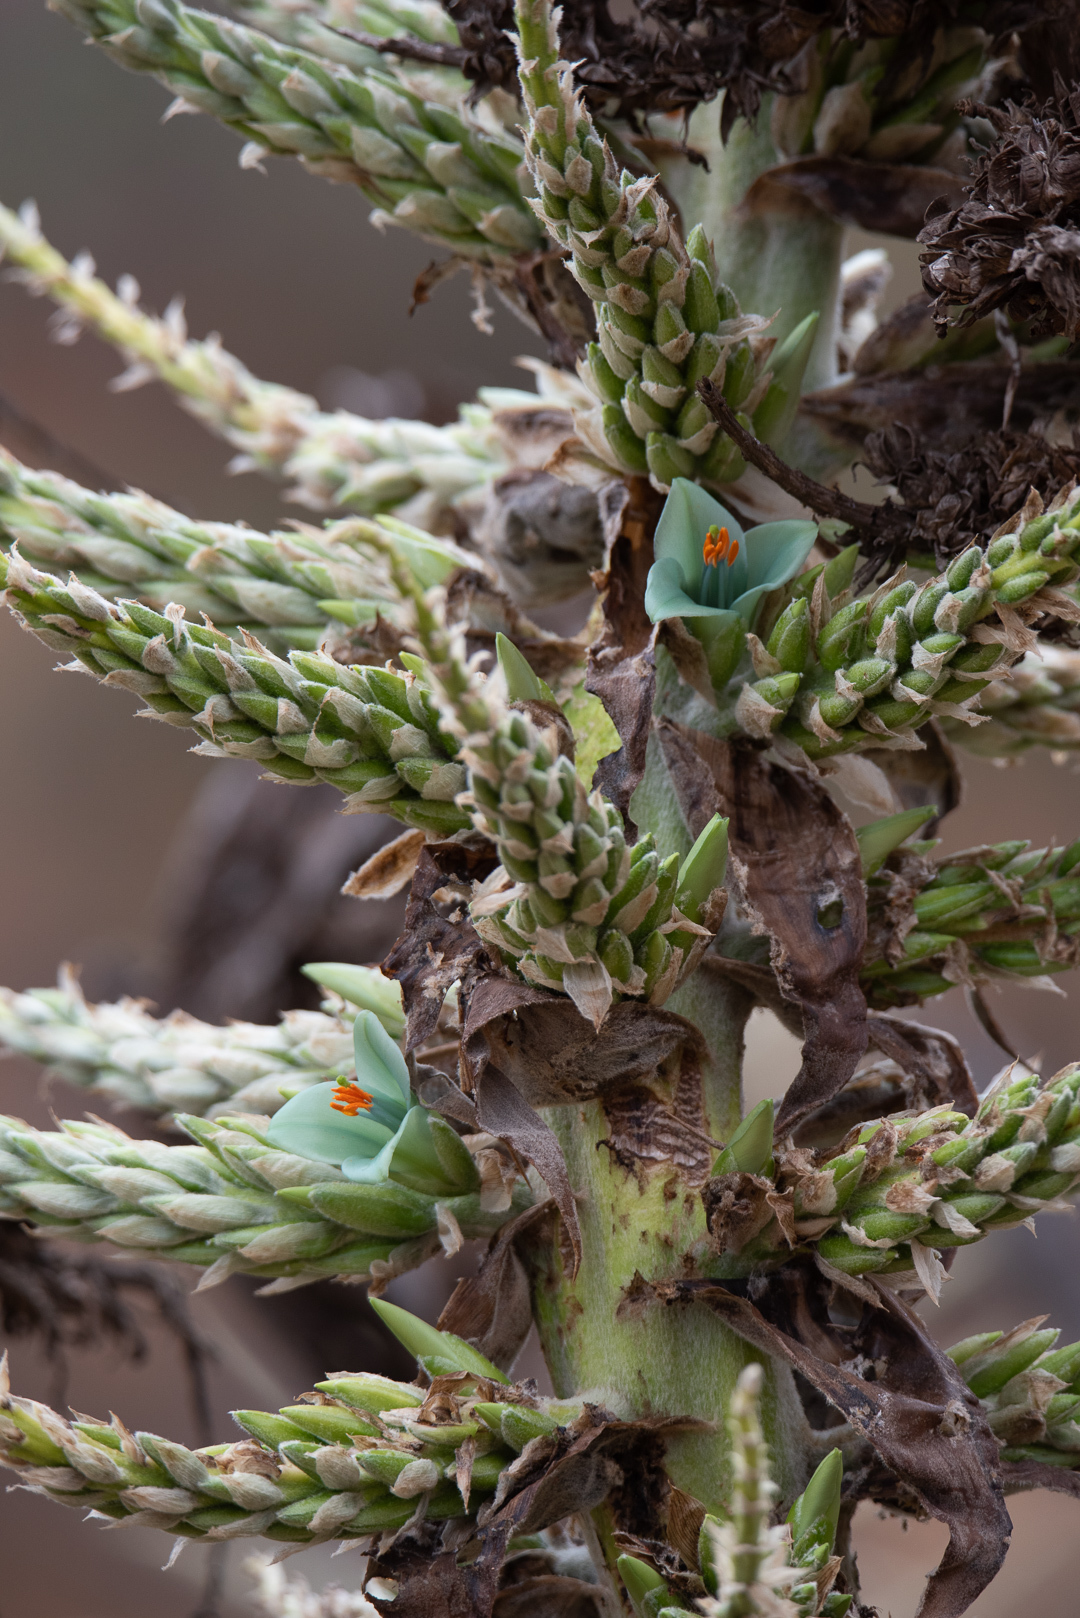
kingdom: Plantae
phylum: Tracheophyta
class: Liliopsida
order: Poales
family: Bromeliaceae
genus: Puya
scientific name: Puya alpestris
